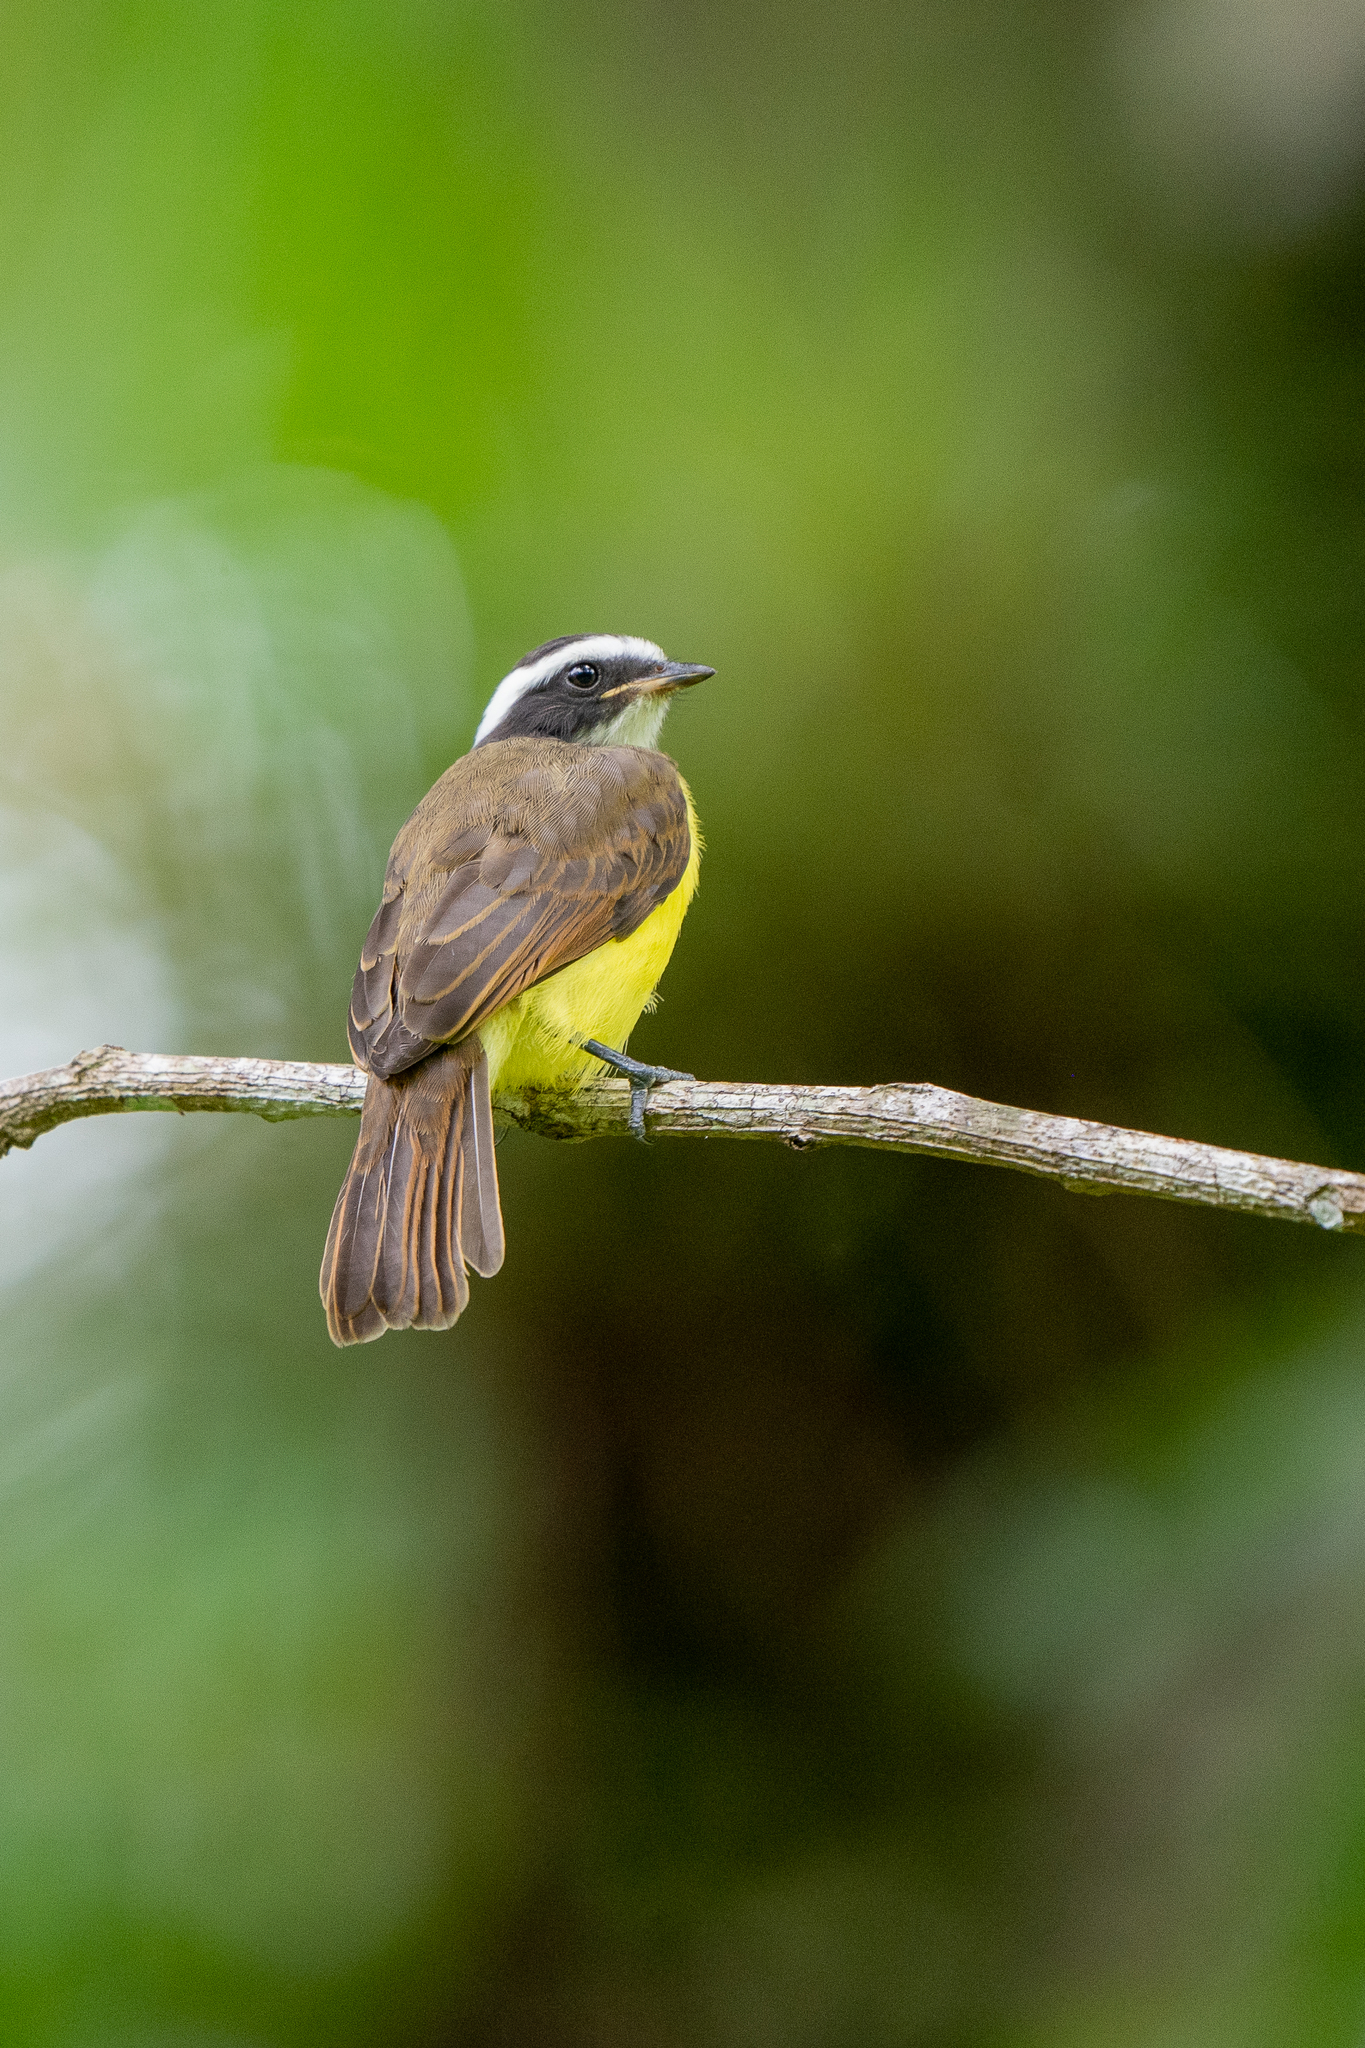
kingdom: Animalia
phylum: Chordata
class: Aves
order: Passeriformes
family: Tyrannidae
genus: Myiozetetes
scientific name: Myiozetetes cayanensis
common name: Rusty-margined flycatcher
